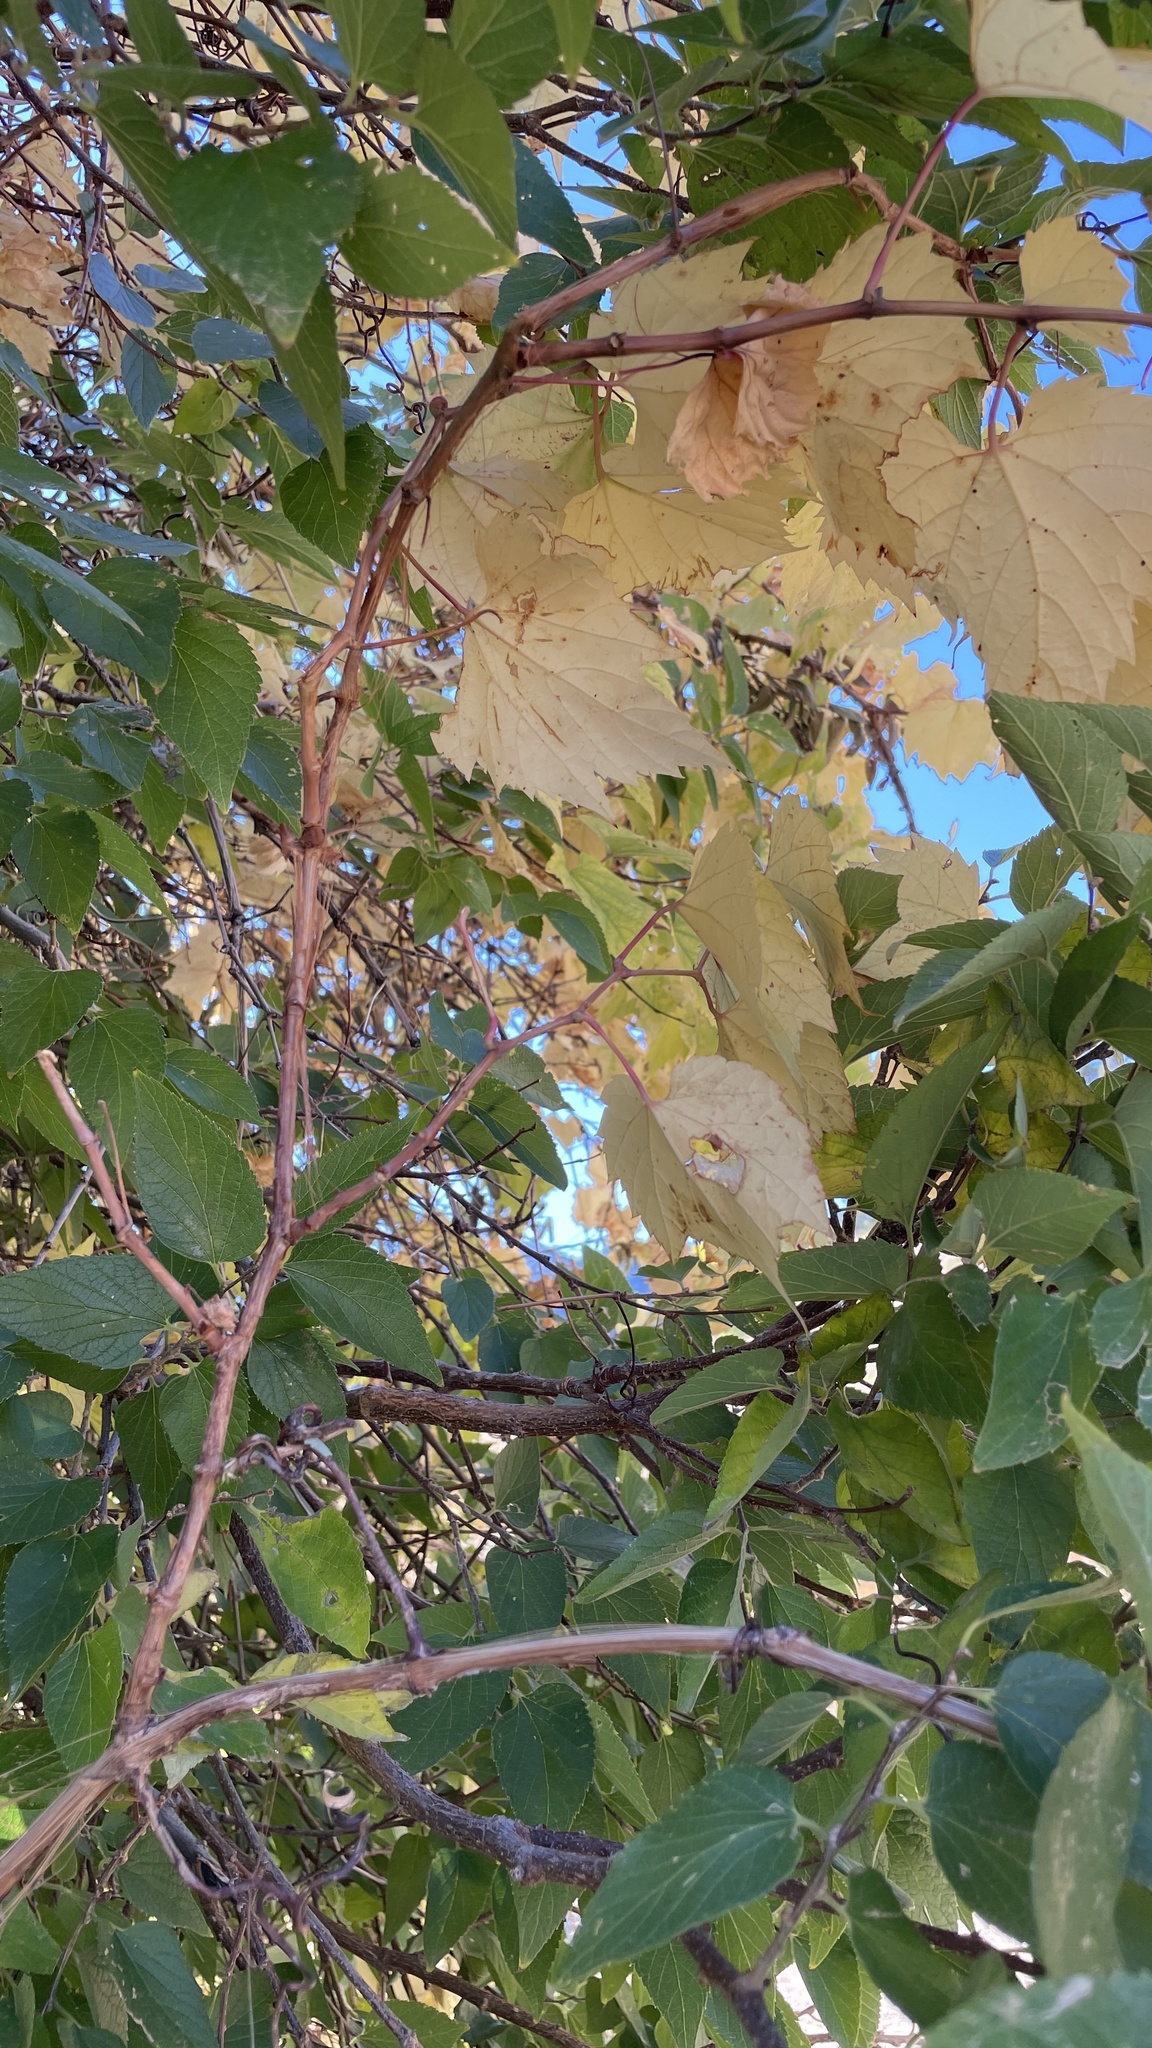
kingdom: Plantae
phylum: Tracheophyta
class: Magnoliopsida
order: Vitales
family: Vitaceae
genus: Vitis
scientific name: Vitis riparia
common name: Frost grape
